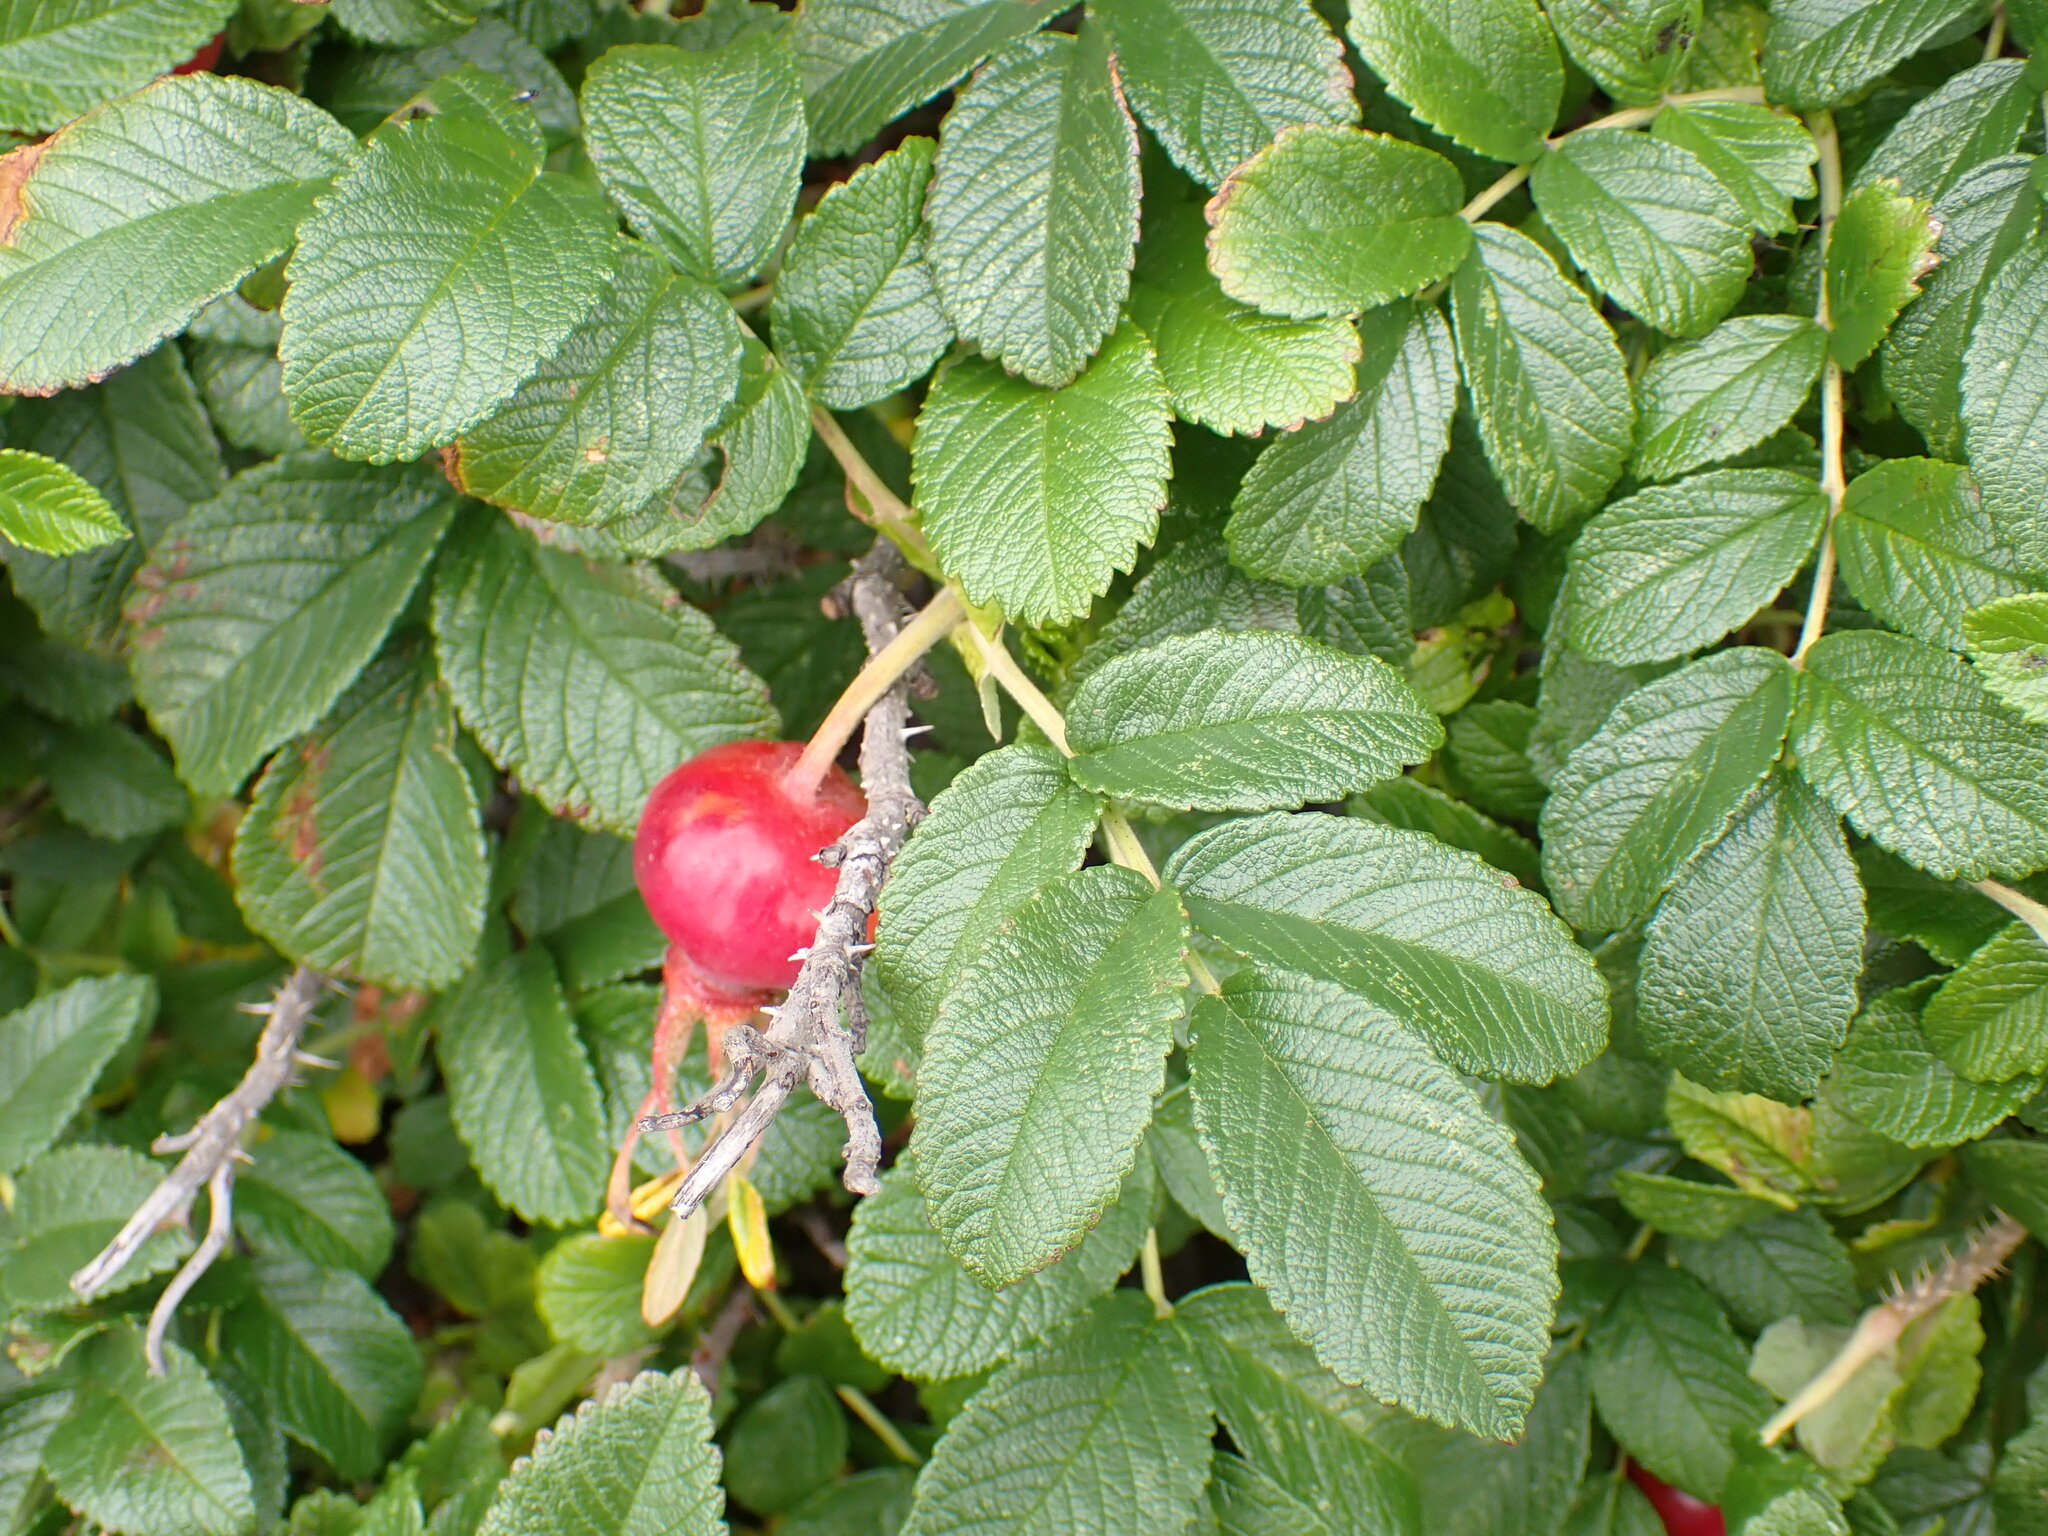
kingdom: Plantae
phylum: Tracheophyta
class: Magnoliopsida
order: Rosales
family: Rosaceae
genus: Rosa
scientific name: Rosa rugosa
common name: Japanese rose
